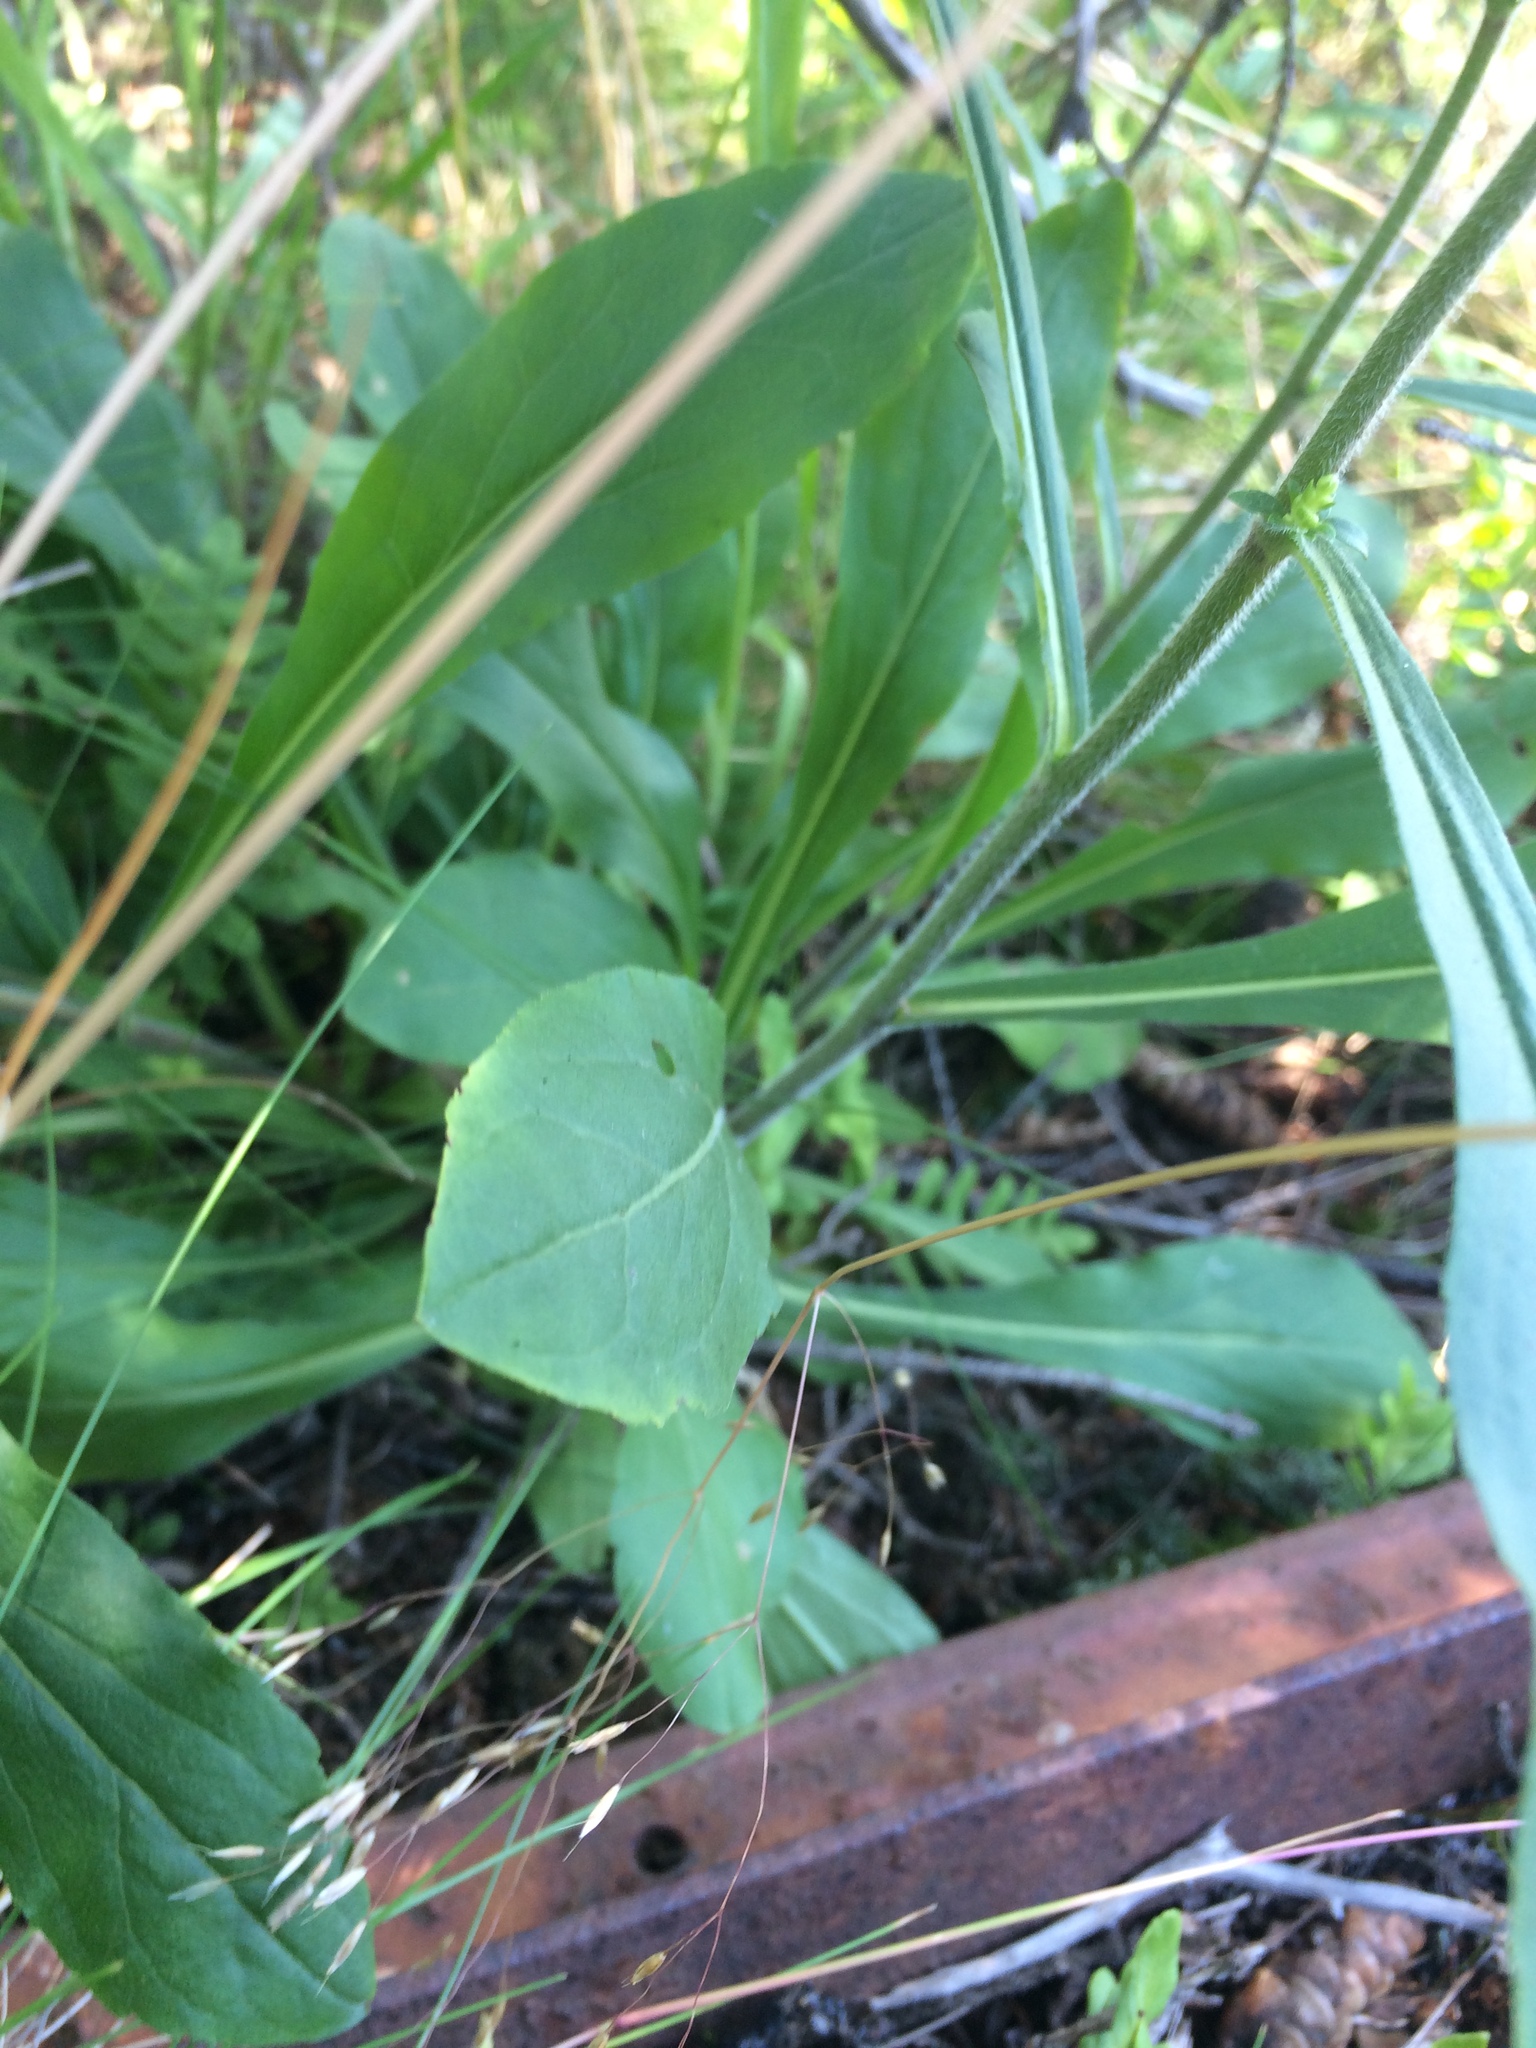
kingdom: Plantae
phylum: Tracheophyta
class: Magnoliopsida
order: Asterales
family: Asteraceae
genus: Solidago
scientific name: Solidago hispida
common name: Hairy goldenrod
